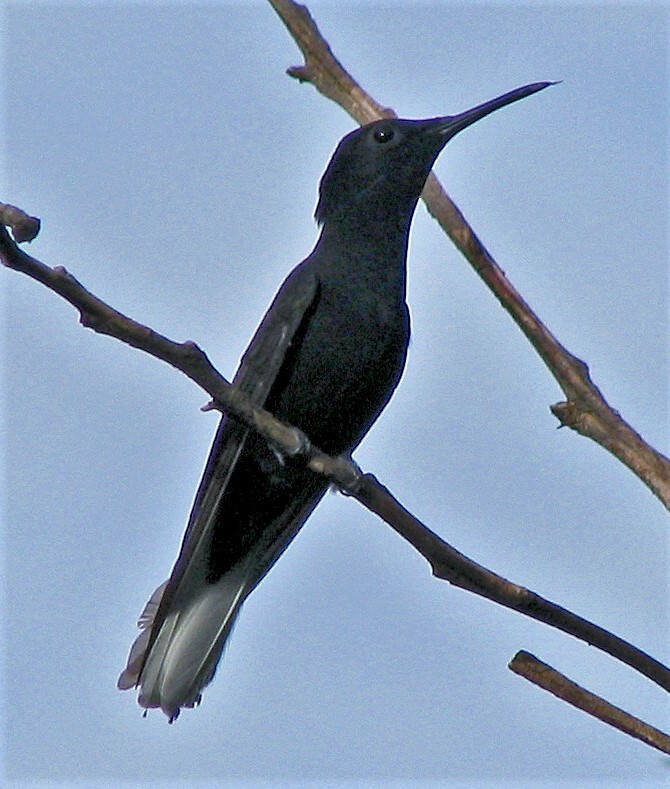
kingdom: Animalia
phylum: Chordata
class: Aves
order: Apodiformes
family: Trochilidae
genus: Florisuga
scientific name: Florisuga fusca
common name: Black jacobin
